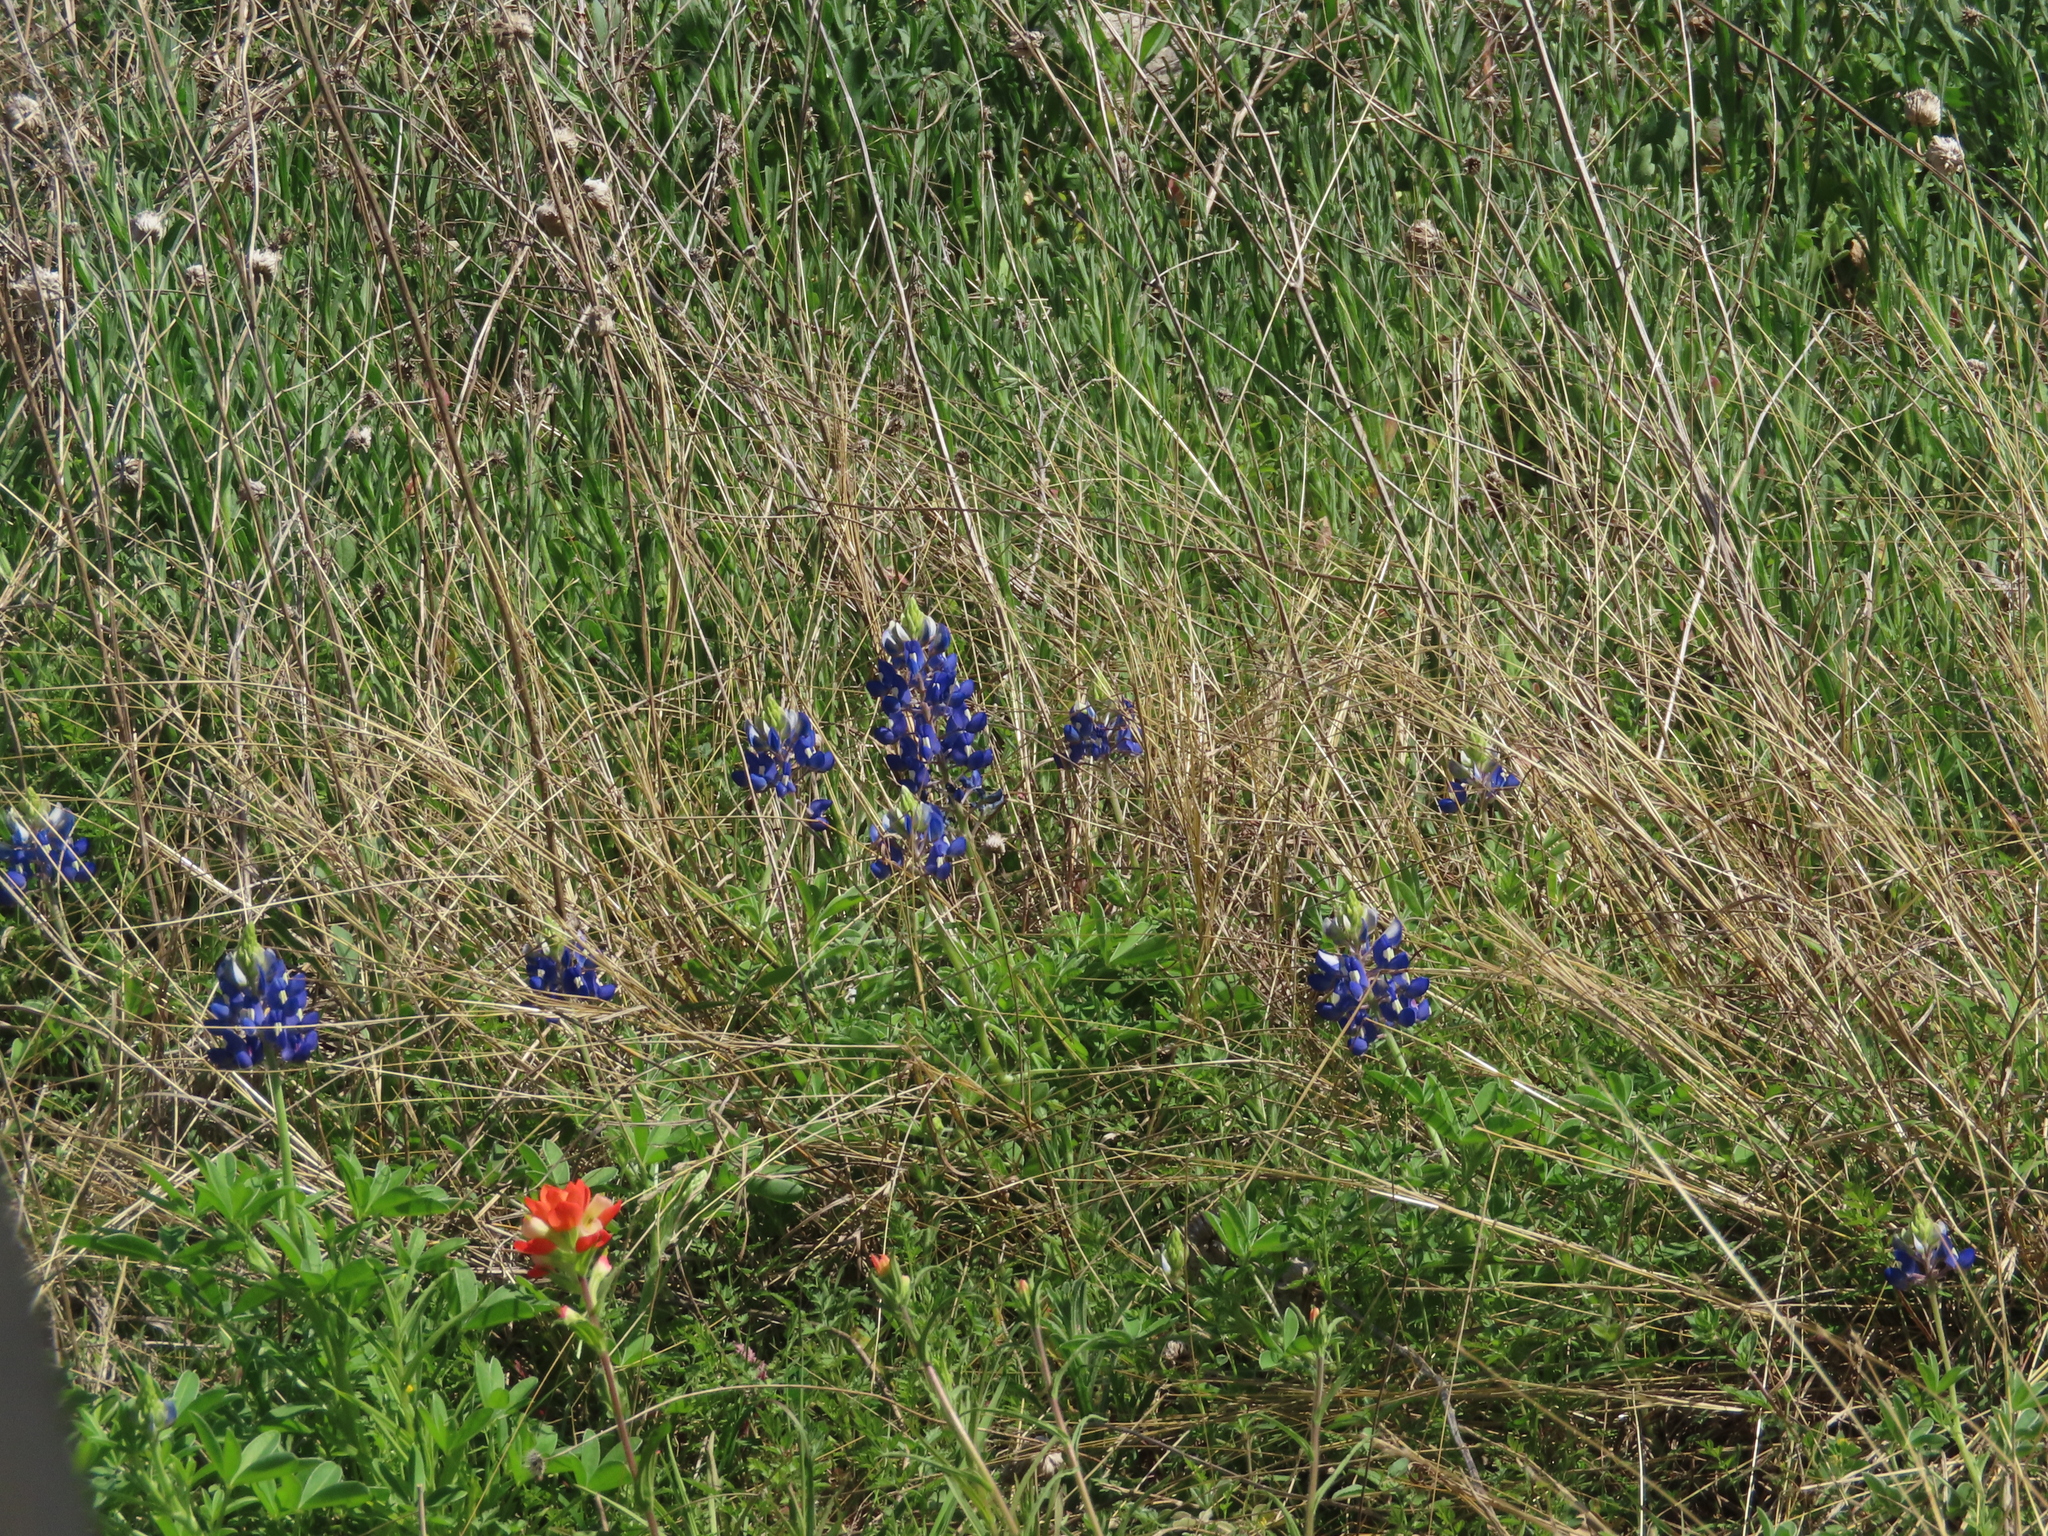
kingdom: Plantae
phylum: Tracheophyta
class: Magnoliopsida
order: Fabales
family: Fabaceae
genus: Lupinus
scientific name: Lupinus texensis
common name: Texas bluebonnet
